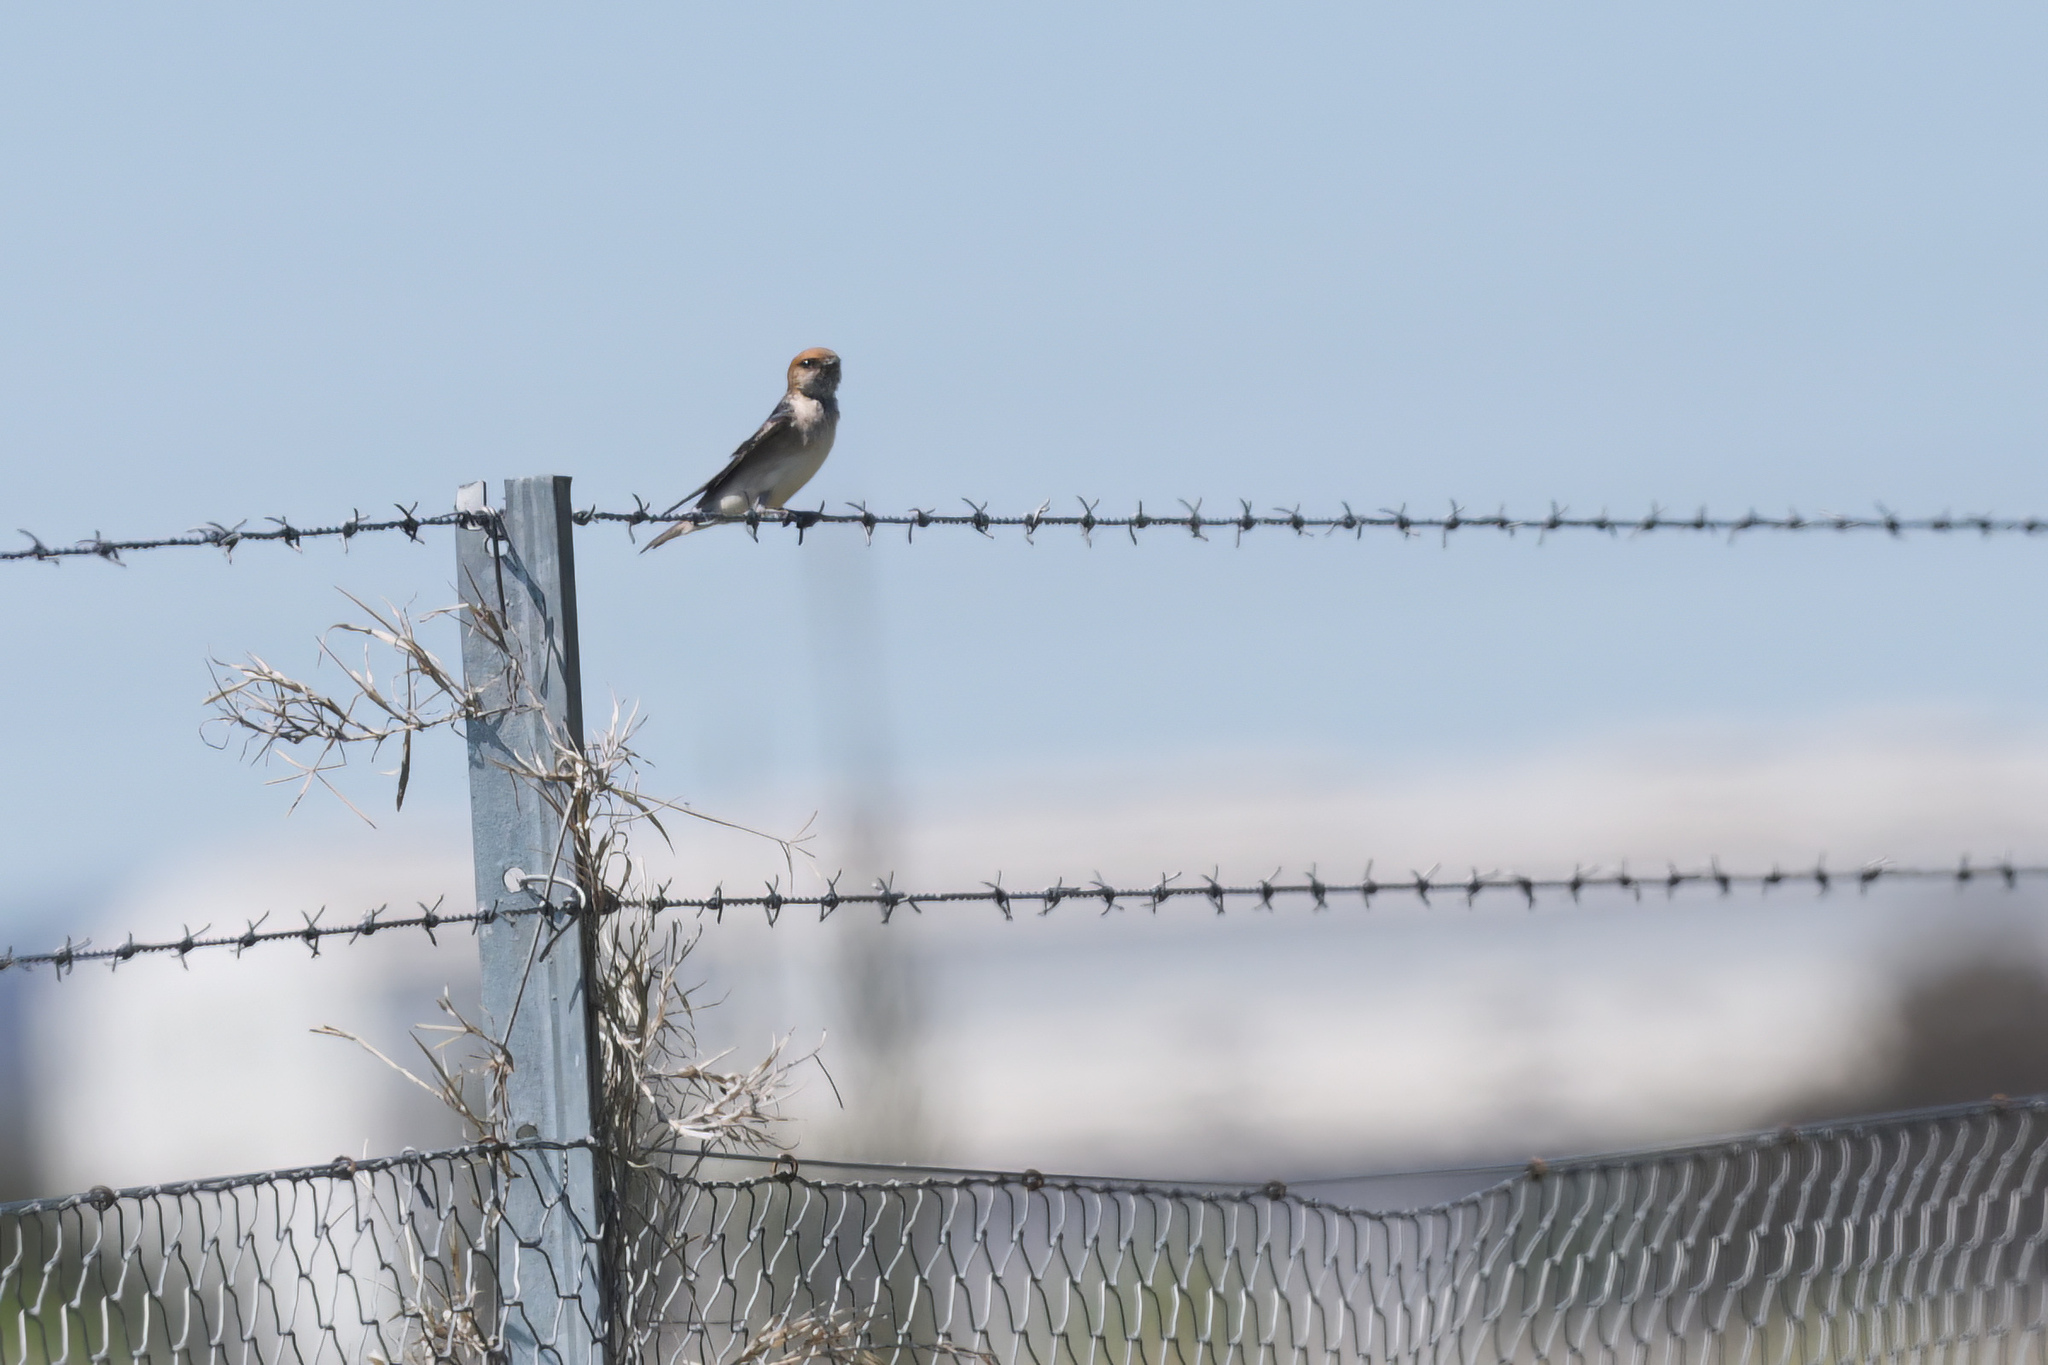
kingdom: Animalia
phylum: Chordata
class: Aves
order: Passeriformes
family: Hirundinidae
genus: Petrochelidon
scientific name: Petrochelidon ariel
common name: Fairy martin
